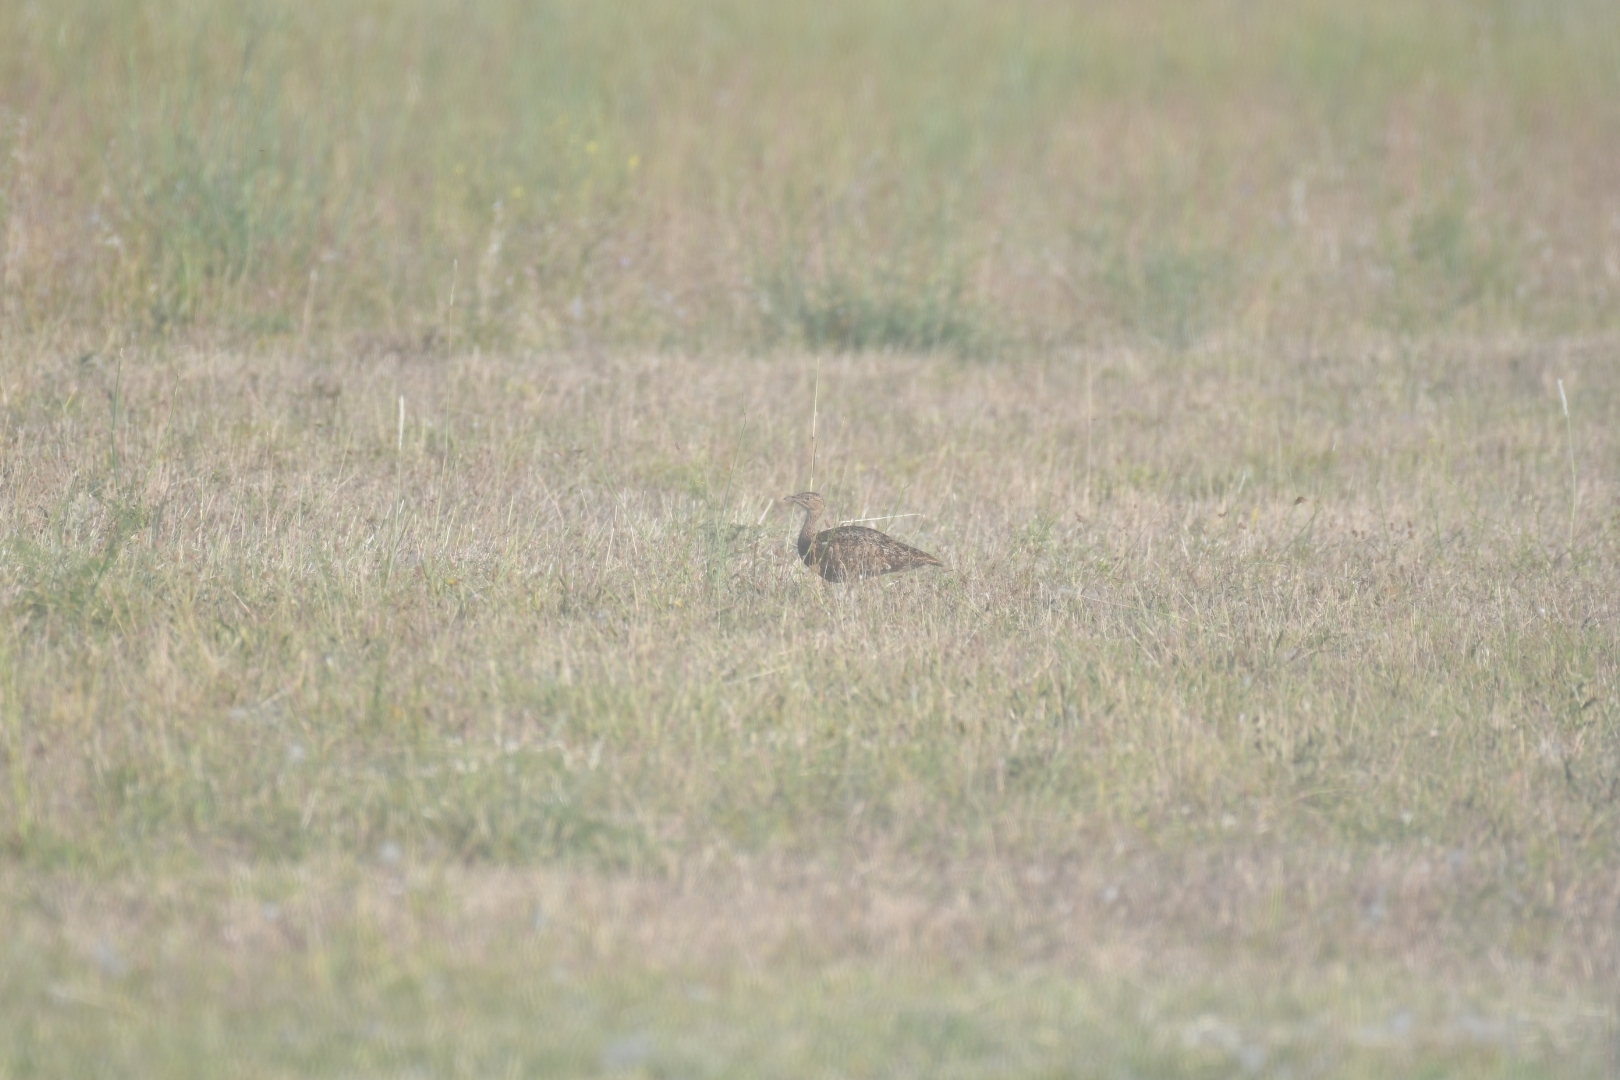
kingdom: Animalia
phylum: Chordata
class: Aves
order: Otidiformes
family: Otididae
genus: Tetrax
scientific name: Tetrax tetrax
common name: Little bustard
